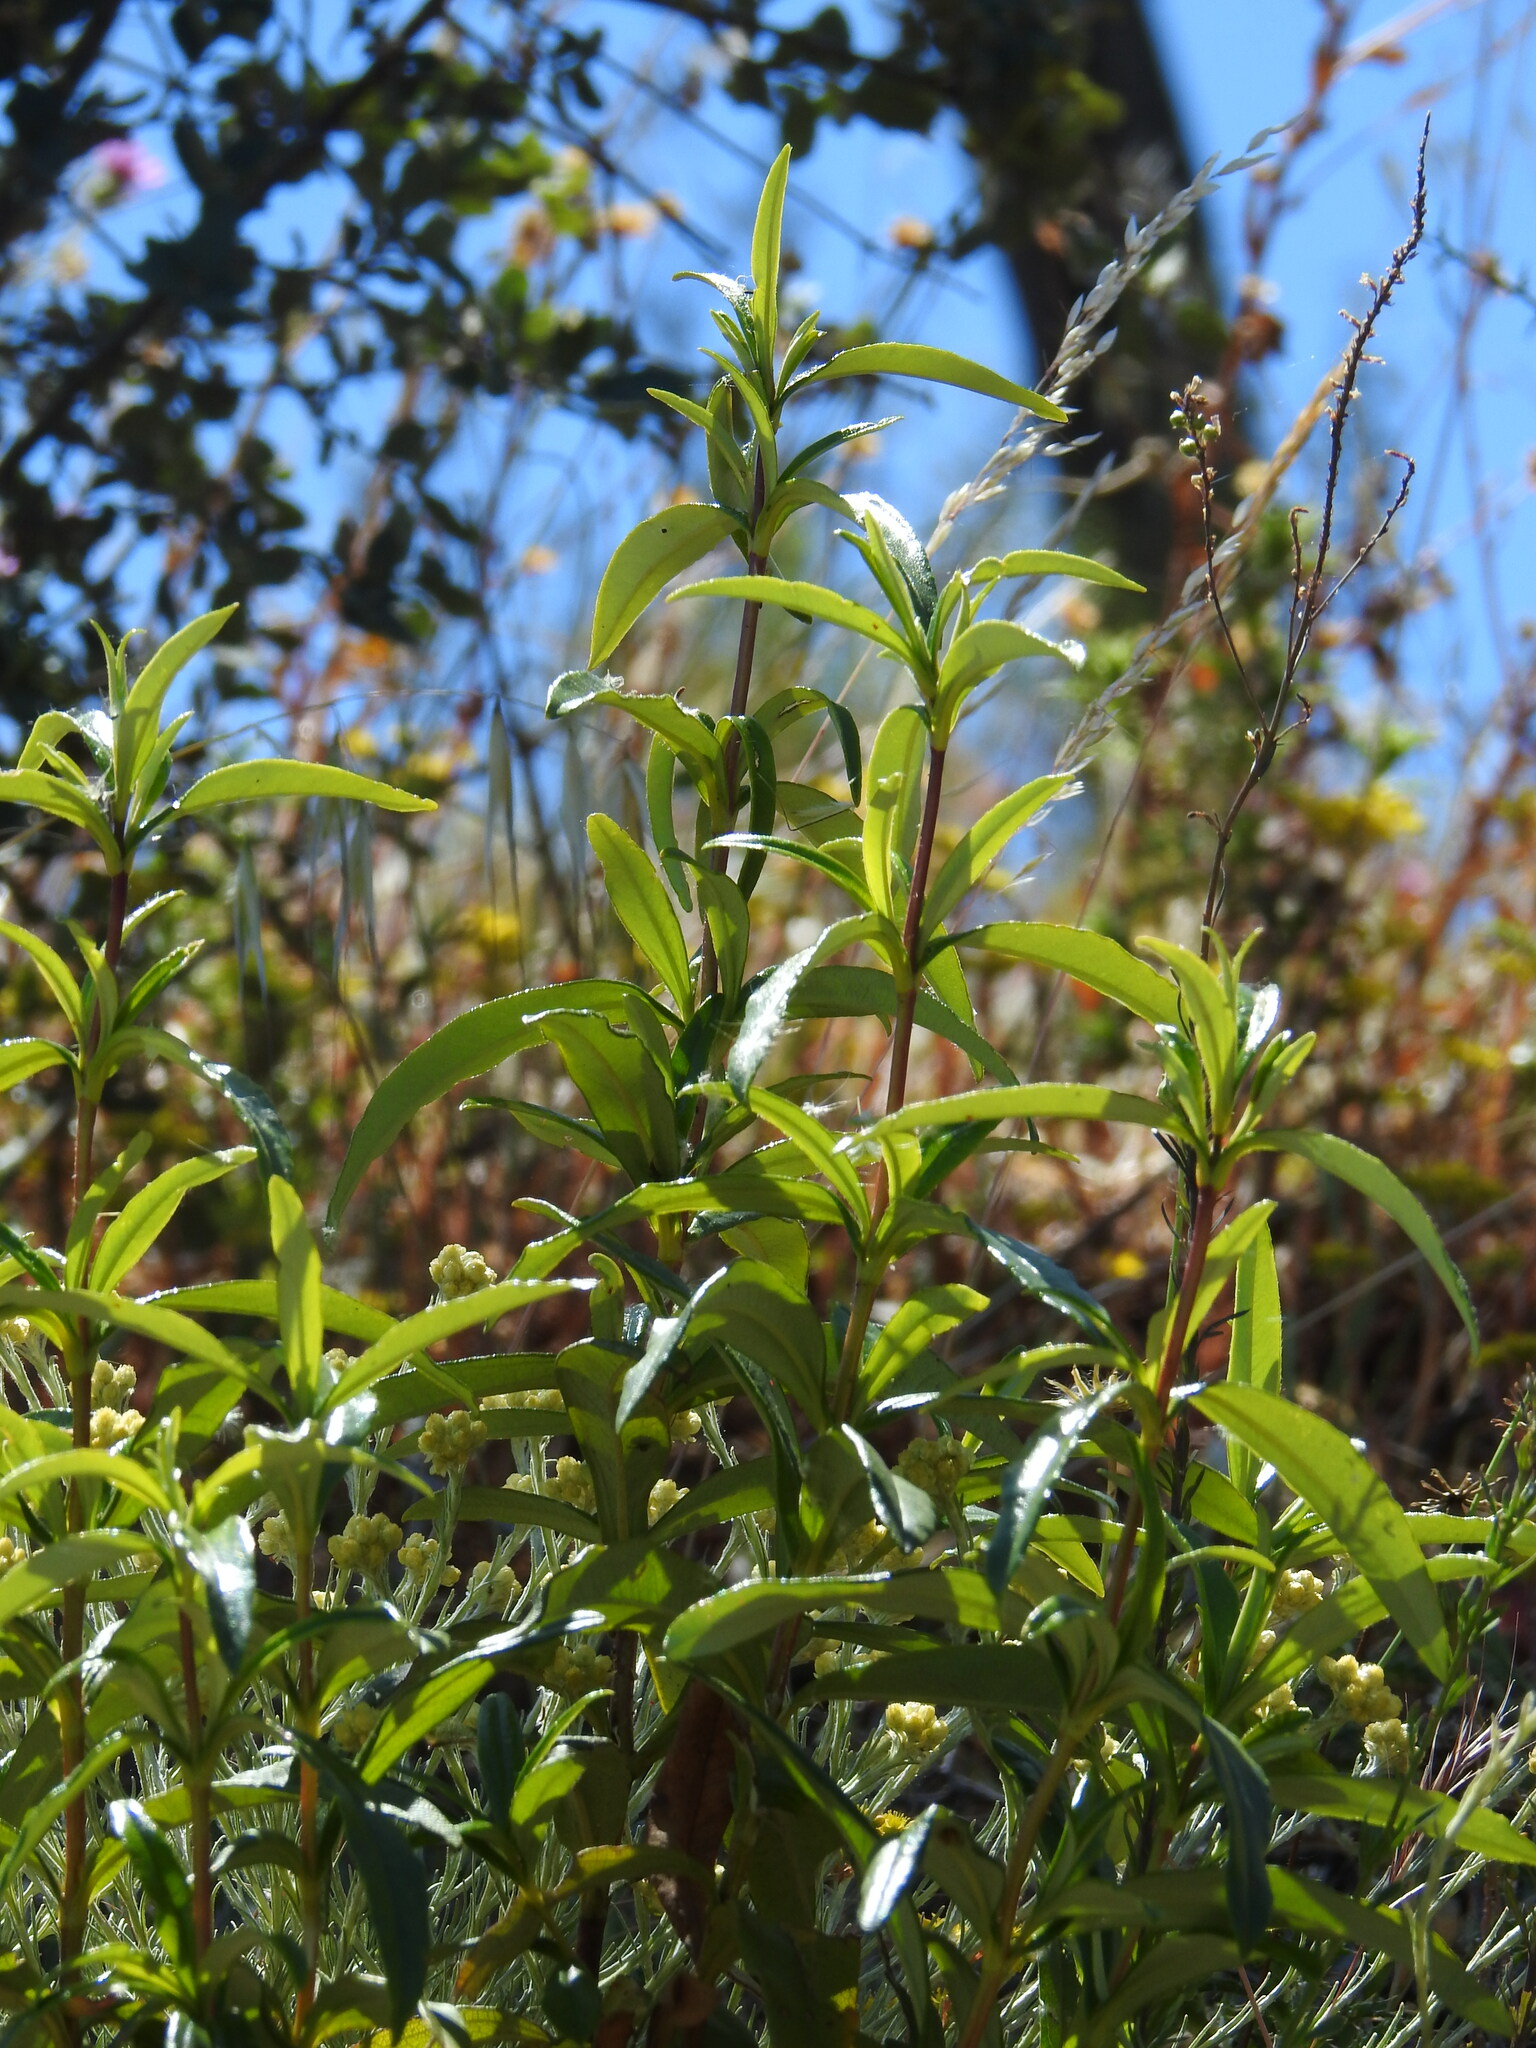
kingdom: Plantae
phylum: Tracheophyta
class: Magnoliopsida
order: Malvales
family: Cistaceae
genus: Cistus
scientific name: Cistus ladanifer
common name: Common gum cistus
